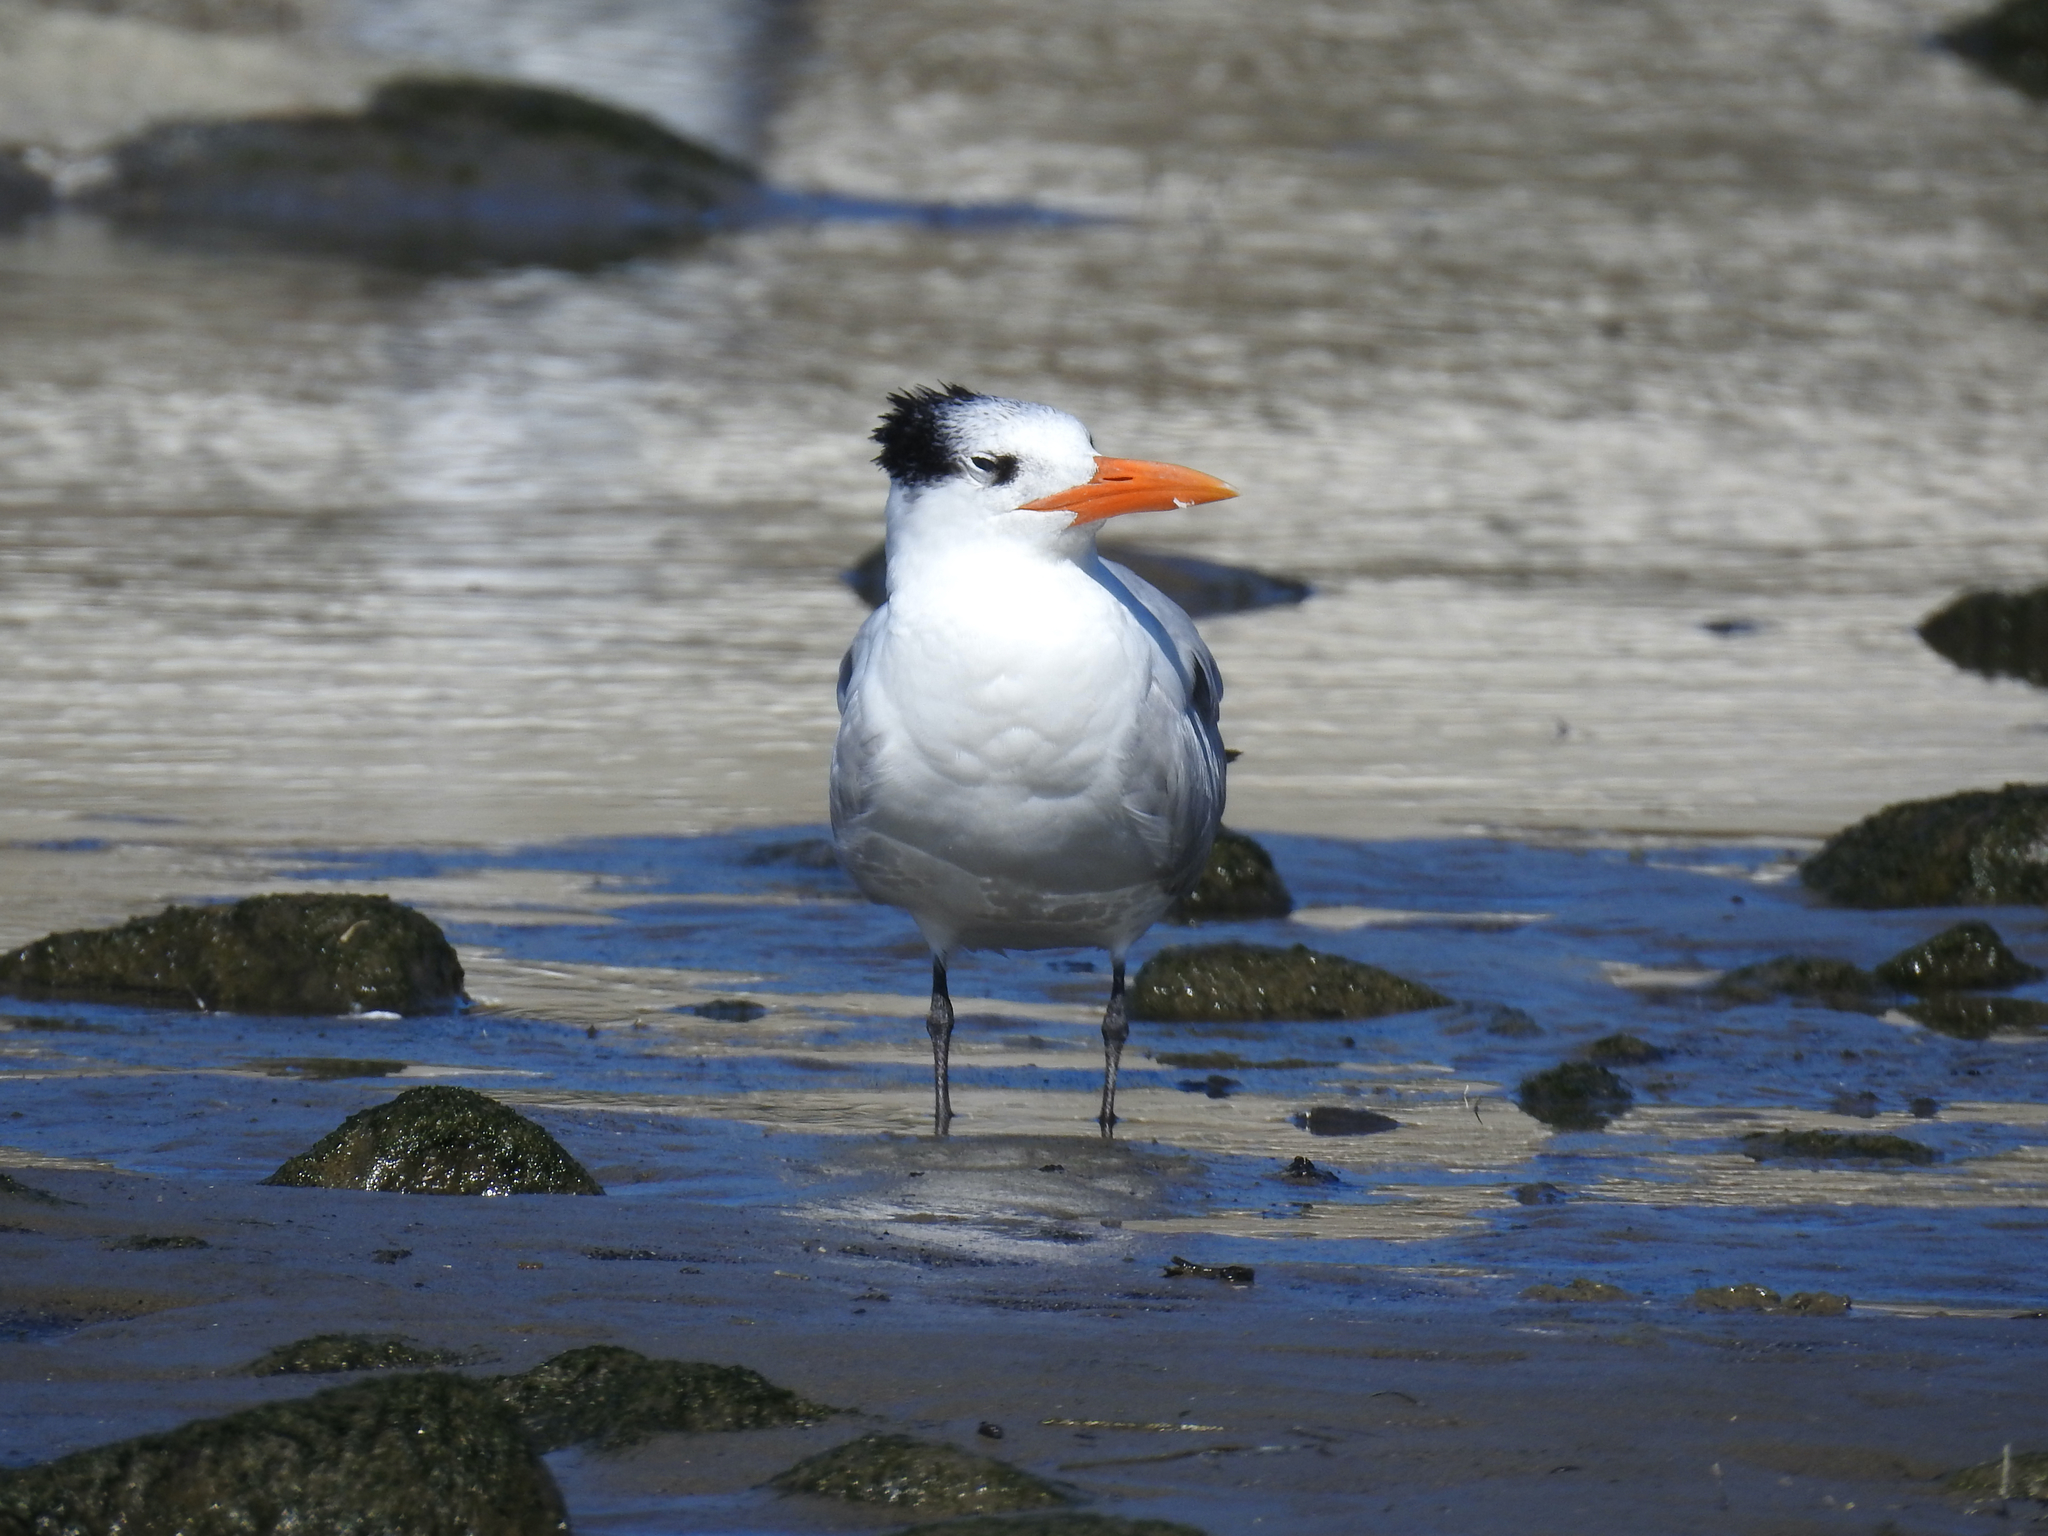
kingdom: Animalia
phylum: Chordata
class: Aves
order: Charadriiformes
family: Laridae
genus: Thalasseus
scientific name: Thalasseus maximus
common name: Royal tern
